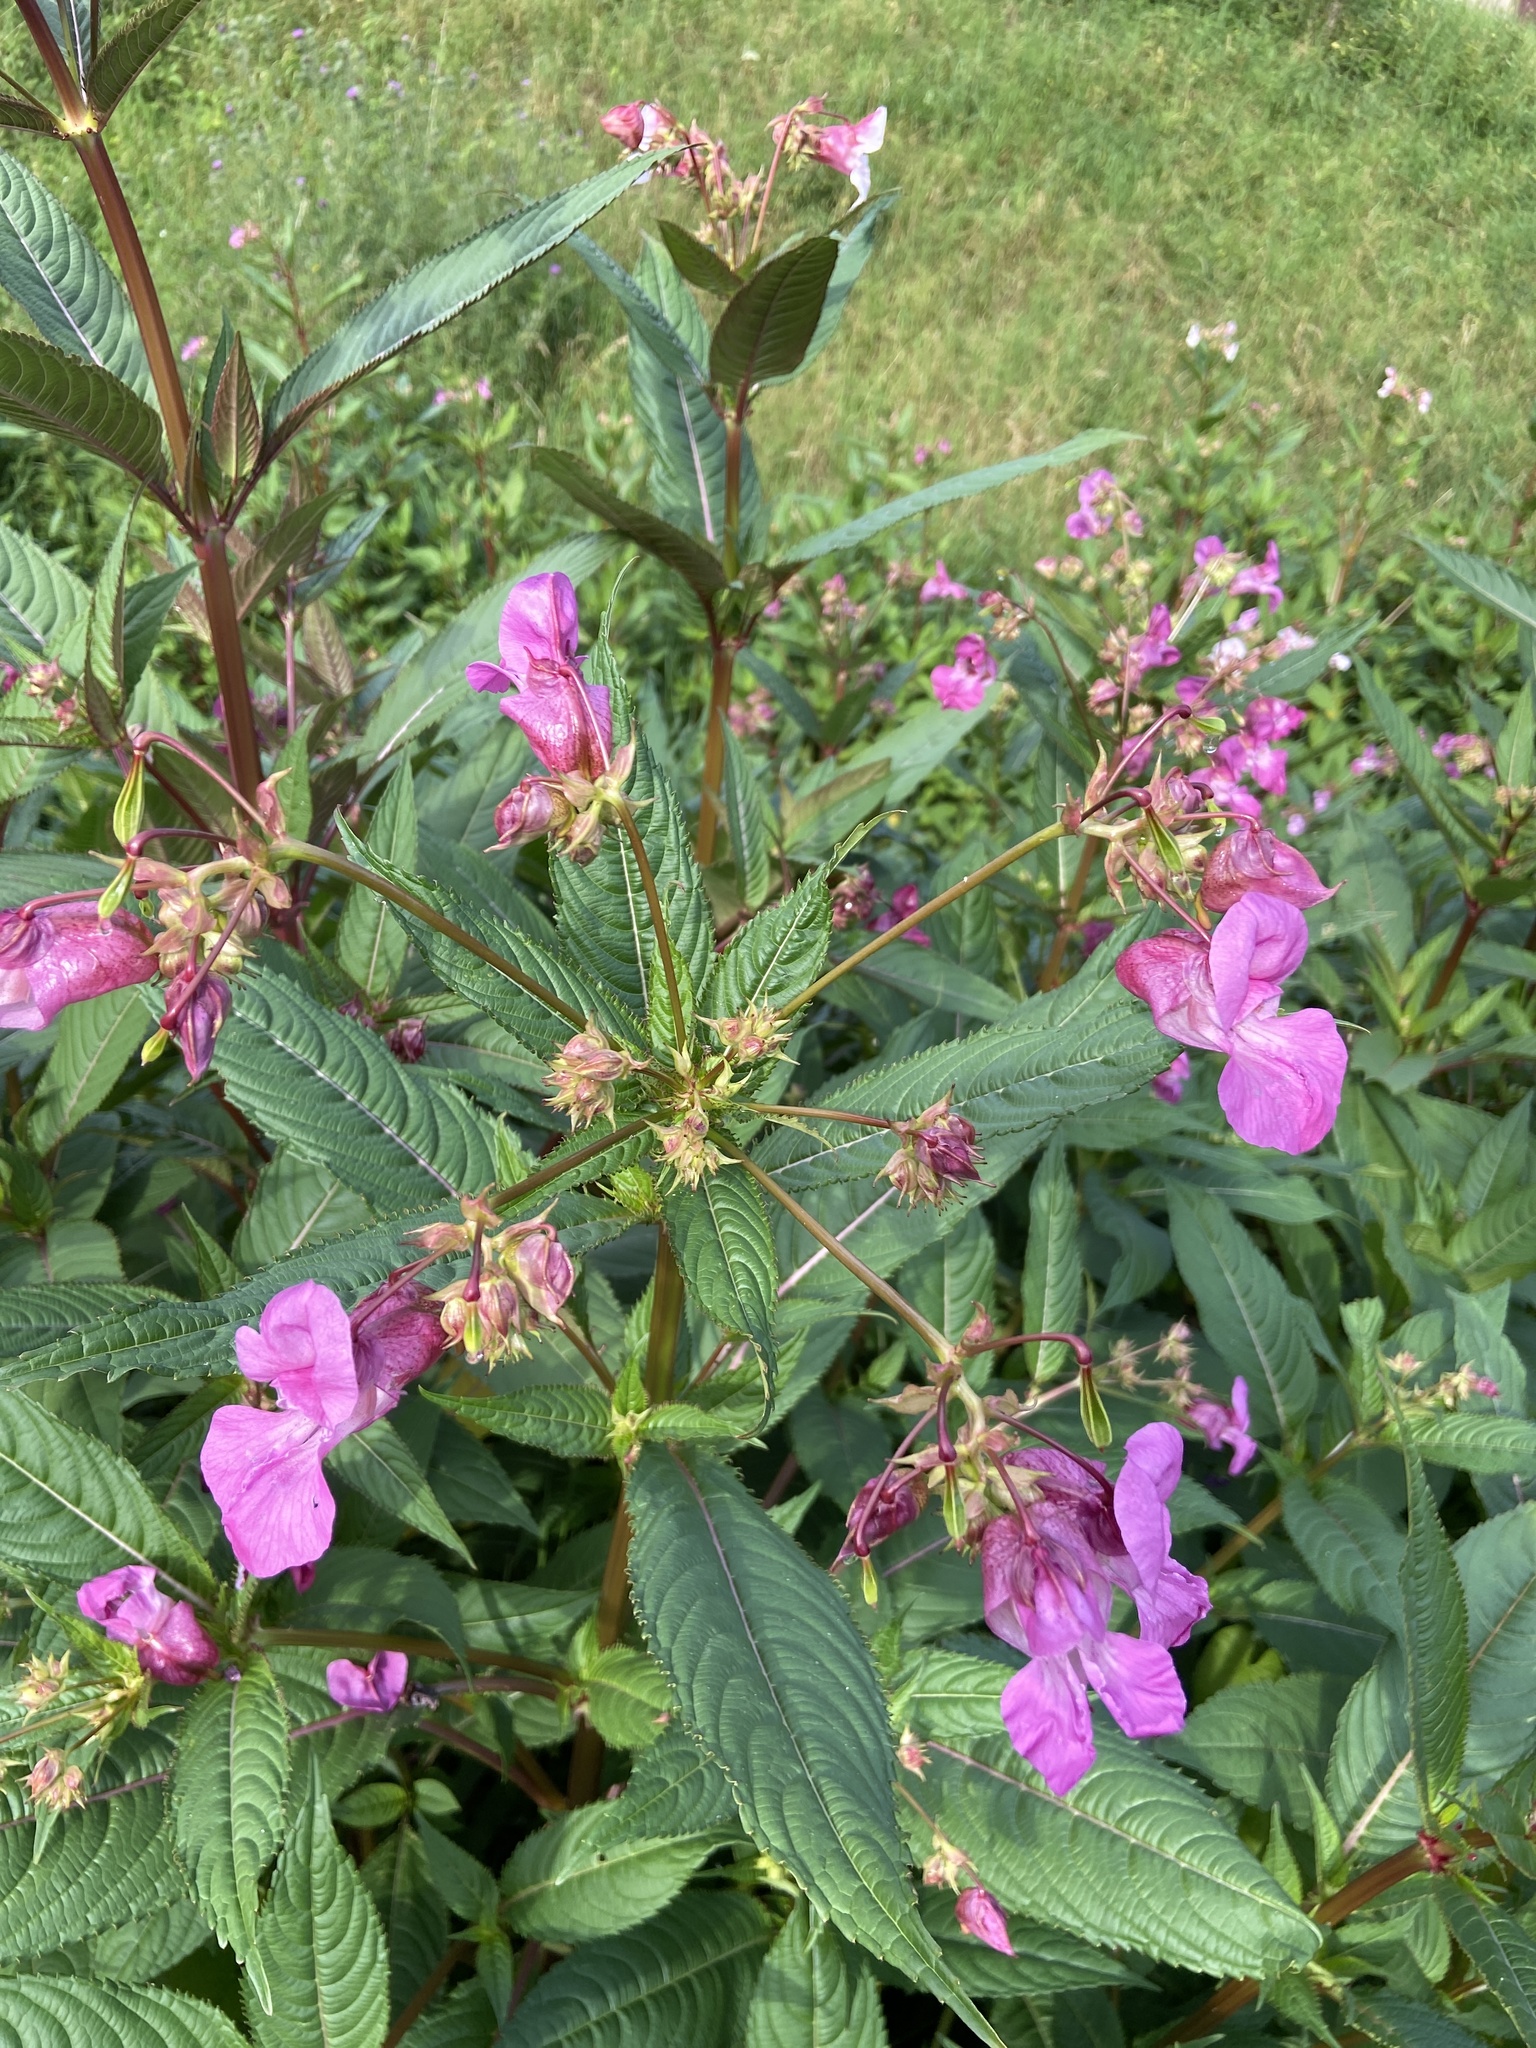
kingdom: Plantae
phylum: Tracheophyta
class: Magnoliopsida
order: Ericales
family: Balsaminaceae
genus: Impatiens
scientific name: Impatiens glandulifera
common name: Himalayan balsam
